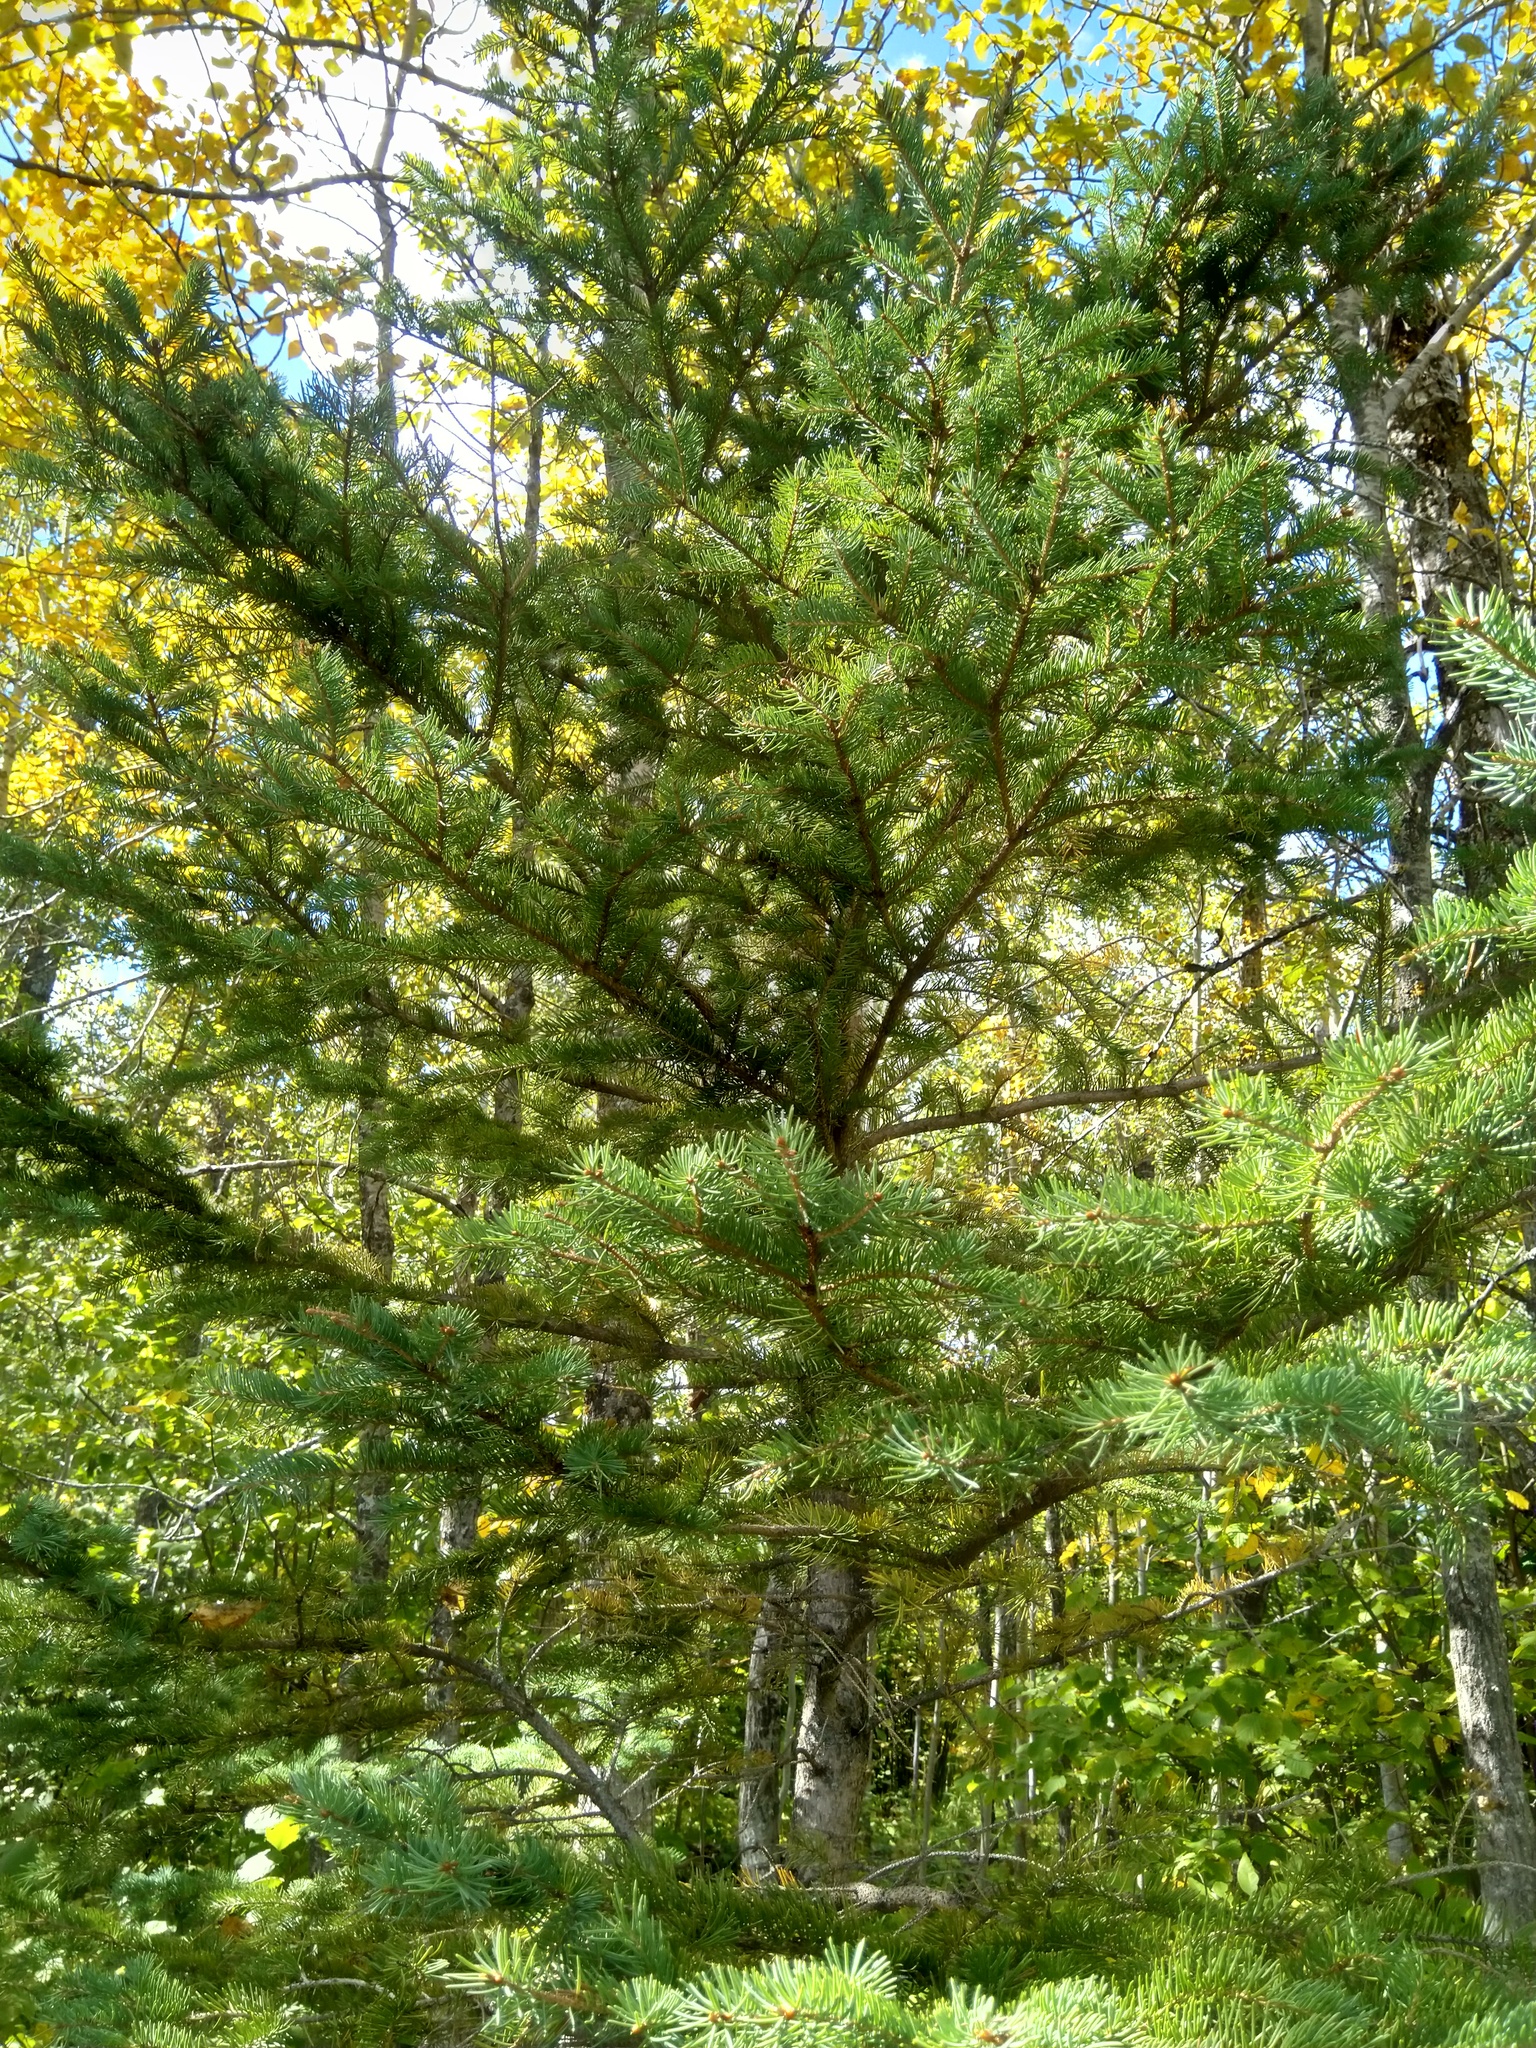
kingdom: Plantae
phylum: Tracheophyta
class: Pinopsida
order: Pinales
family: Pinaceae
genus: Picea
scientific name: Picea glauca
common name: White spruce
